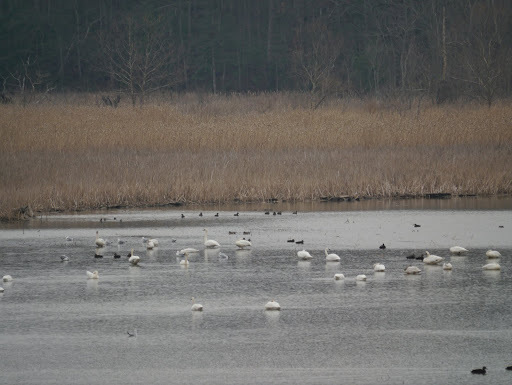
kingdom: Animalia
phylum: Chordata
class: Aves
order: Anseriformes
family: Anatidae
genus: Cygnus
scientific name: Cygnus columbianus
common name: Tundra swan
